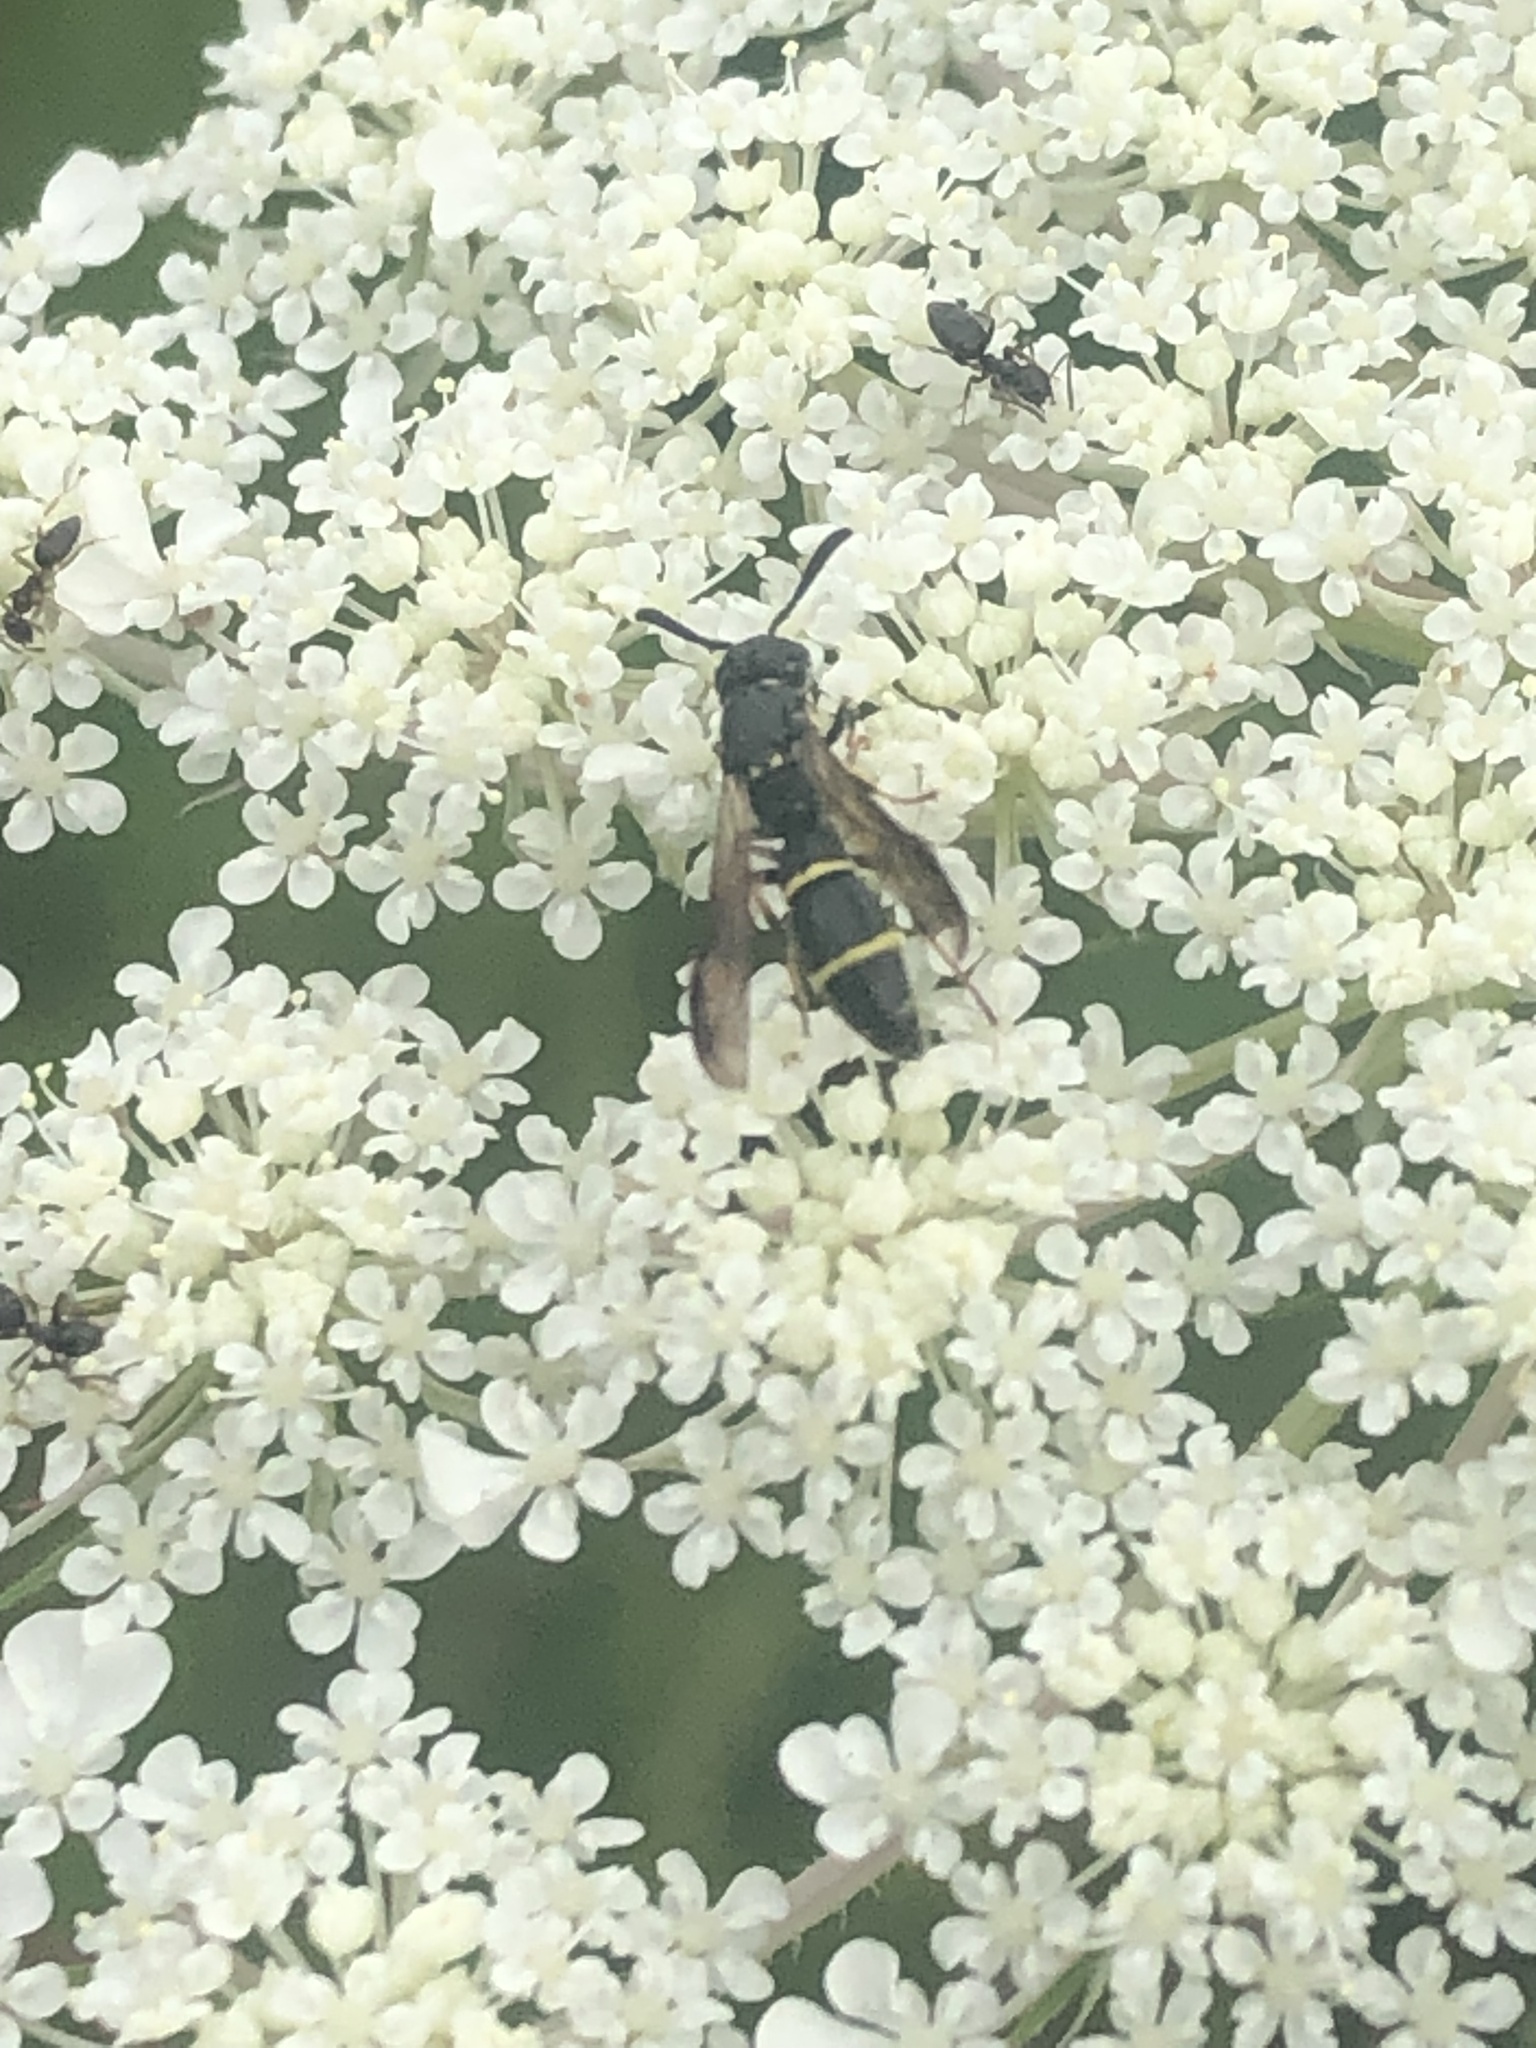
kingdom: Animalia
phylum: Arthropoda
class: Insecta
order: Hymenoptera
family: Eumenidae
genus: Symmorphus
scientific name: Symmorphus
